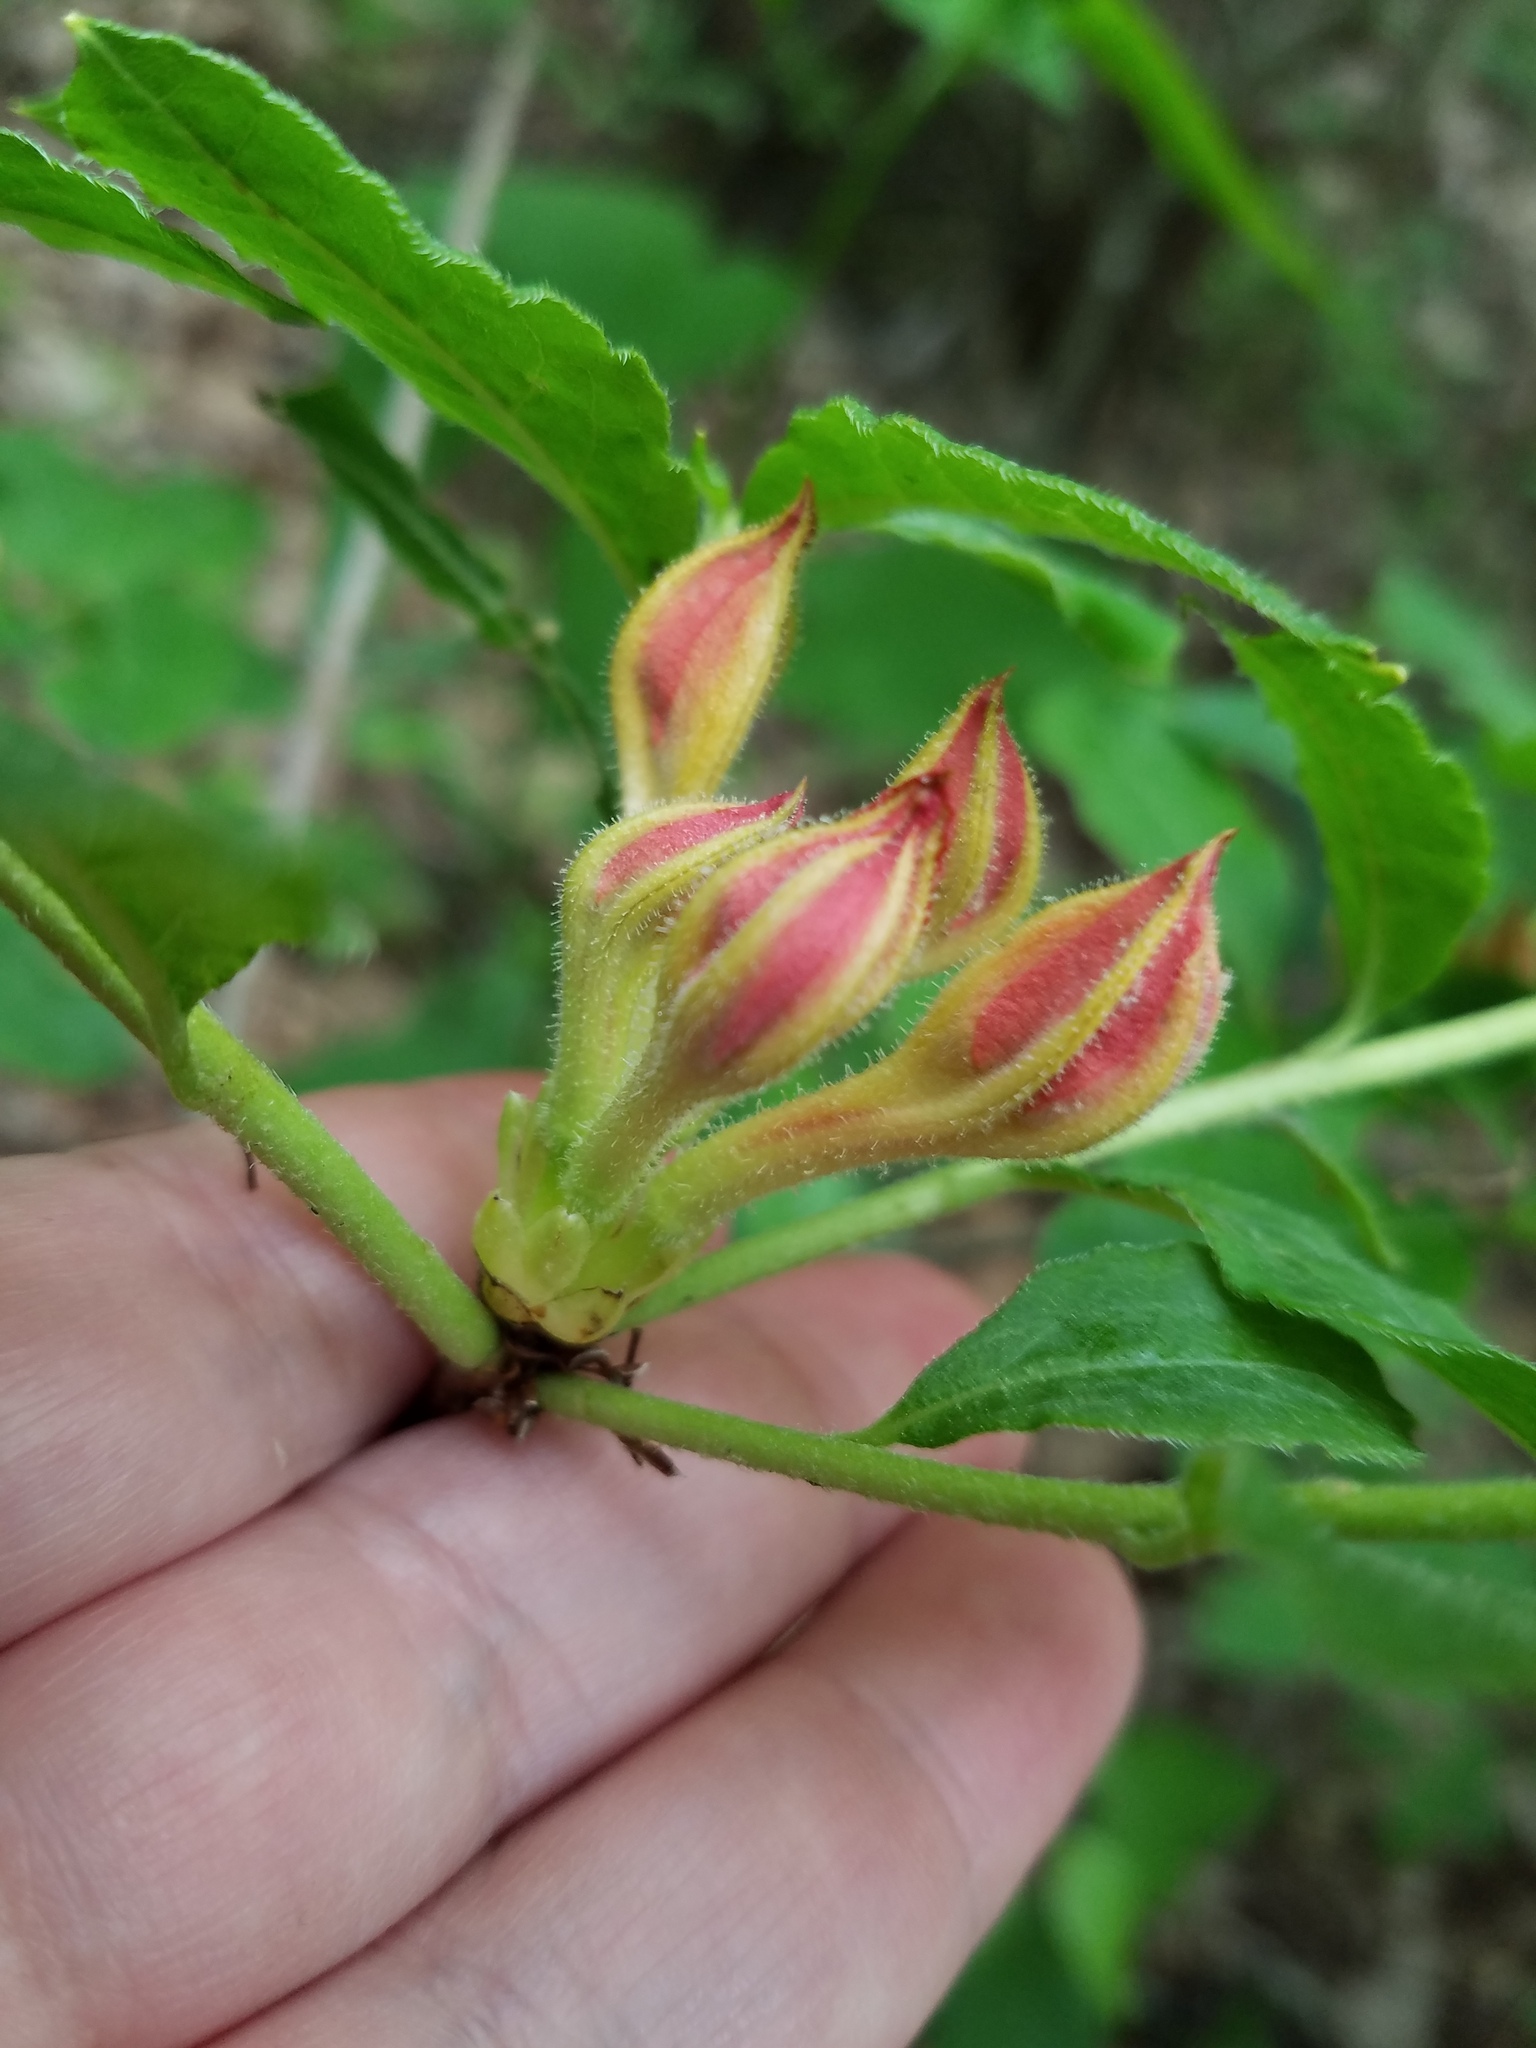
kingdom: Plantae
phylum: Tracheophyta
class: Magnoliopsida
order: Ericales
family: Ericaceae
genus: Rhododendron
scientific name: Rhododendron calendulaceum
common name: Flame azalea
